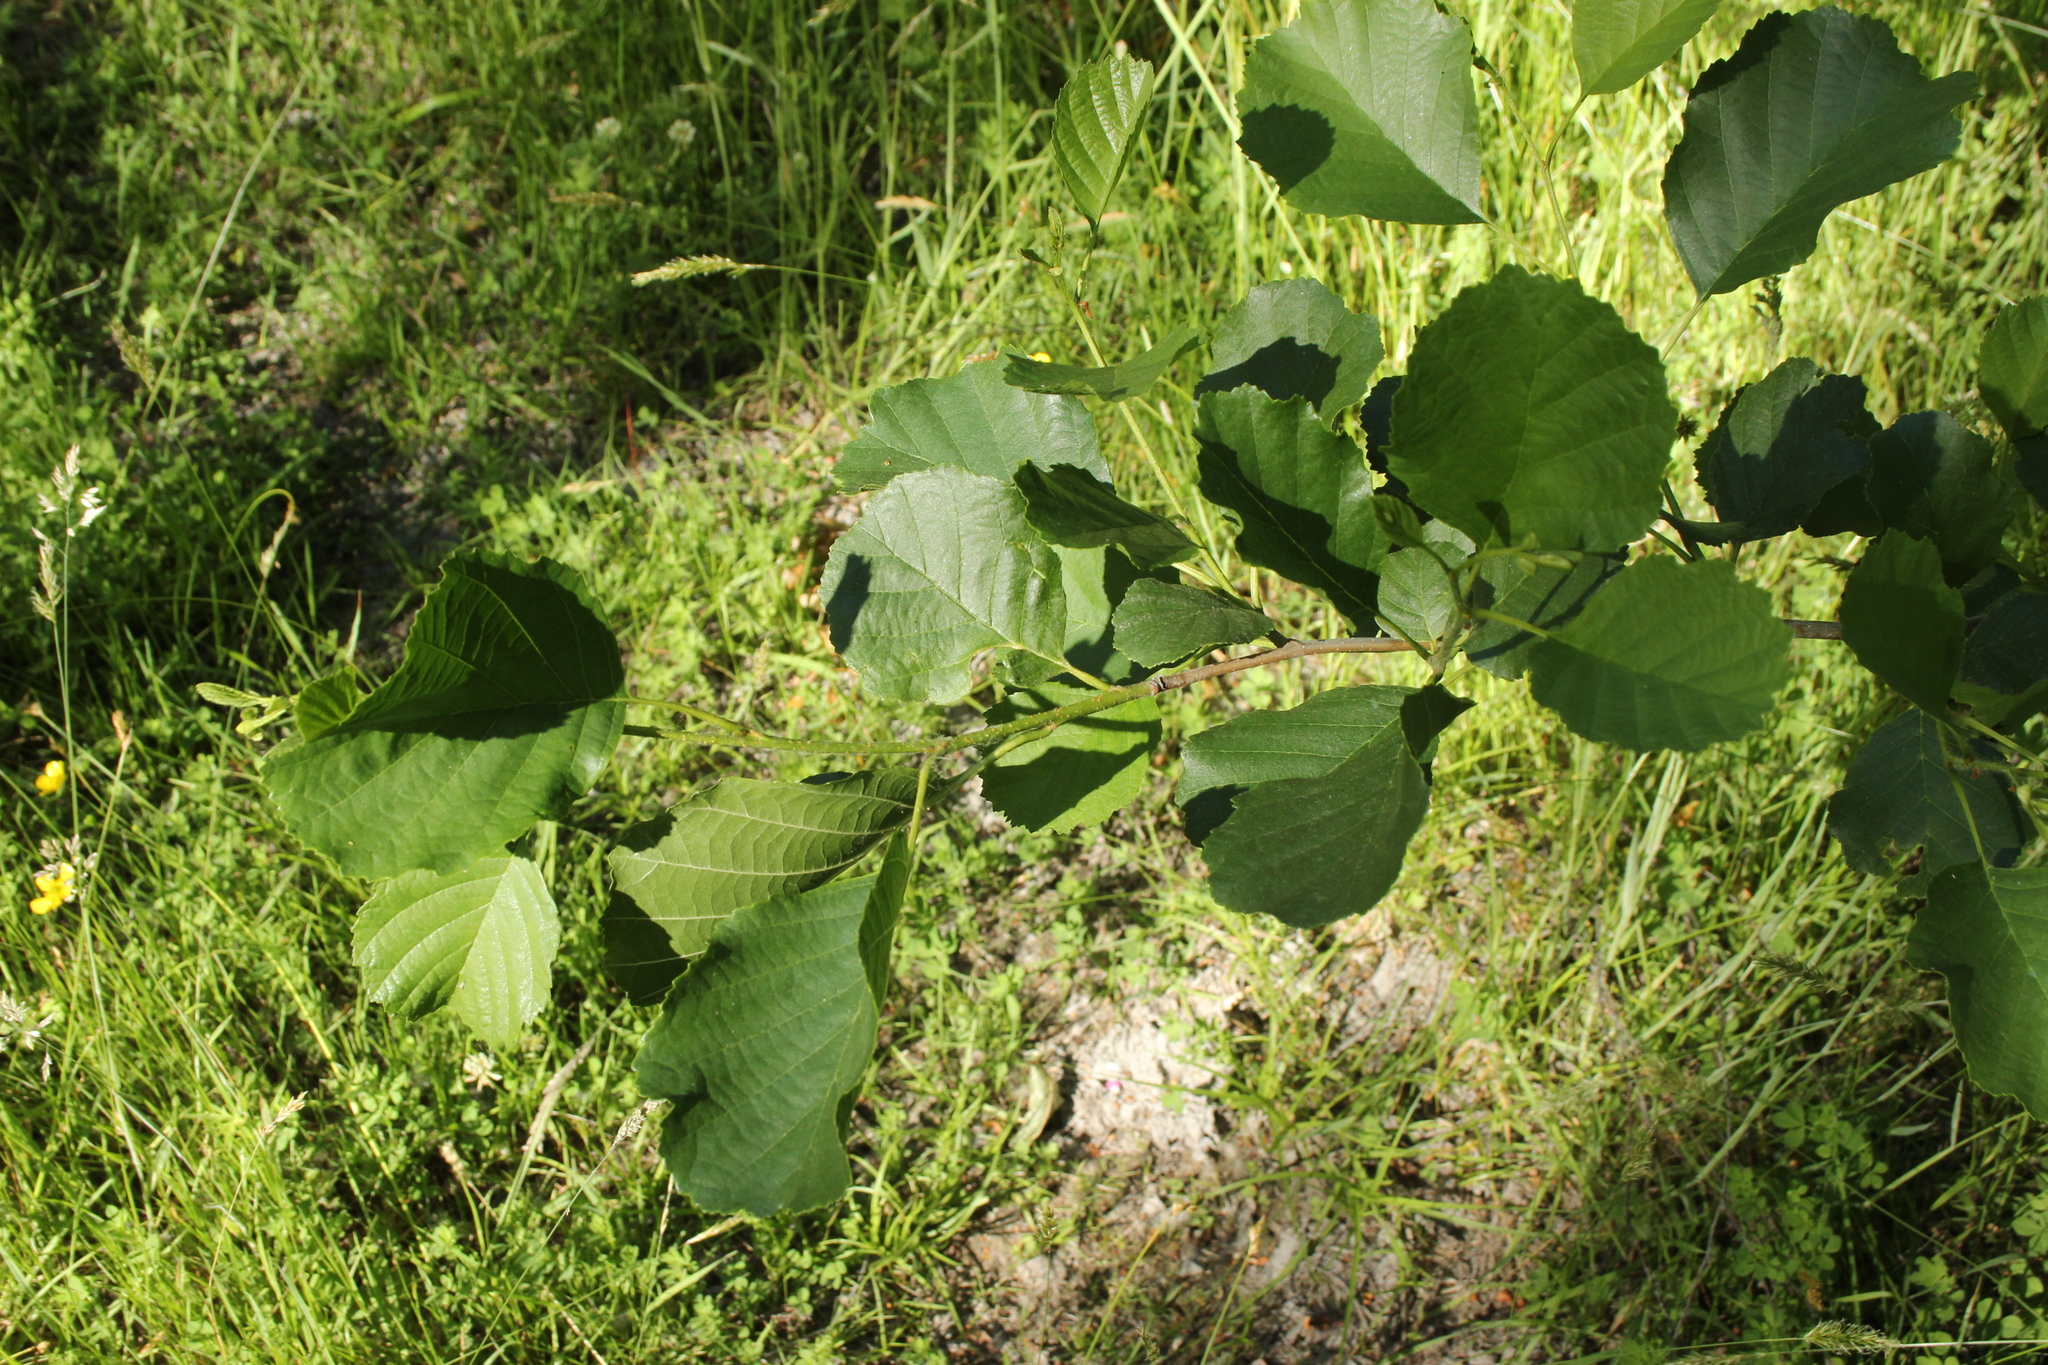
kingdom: Plantae
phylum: Tracheophyta
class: Magnoliopsida
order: Fagales
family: Betulaceae
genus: Alnus
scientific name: Alnus glutinosa
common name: Black alder
